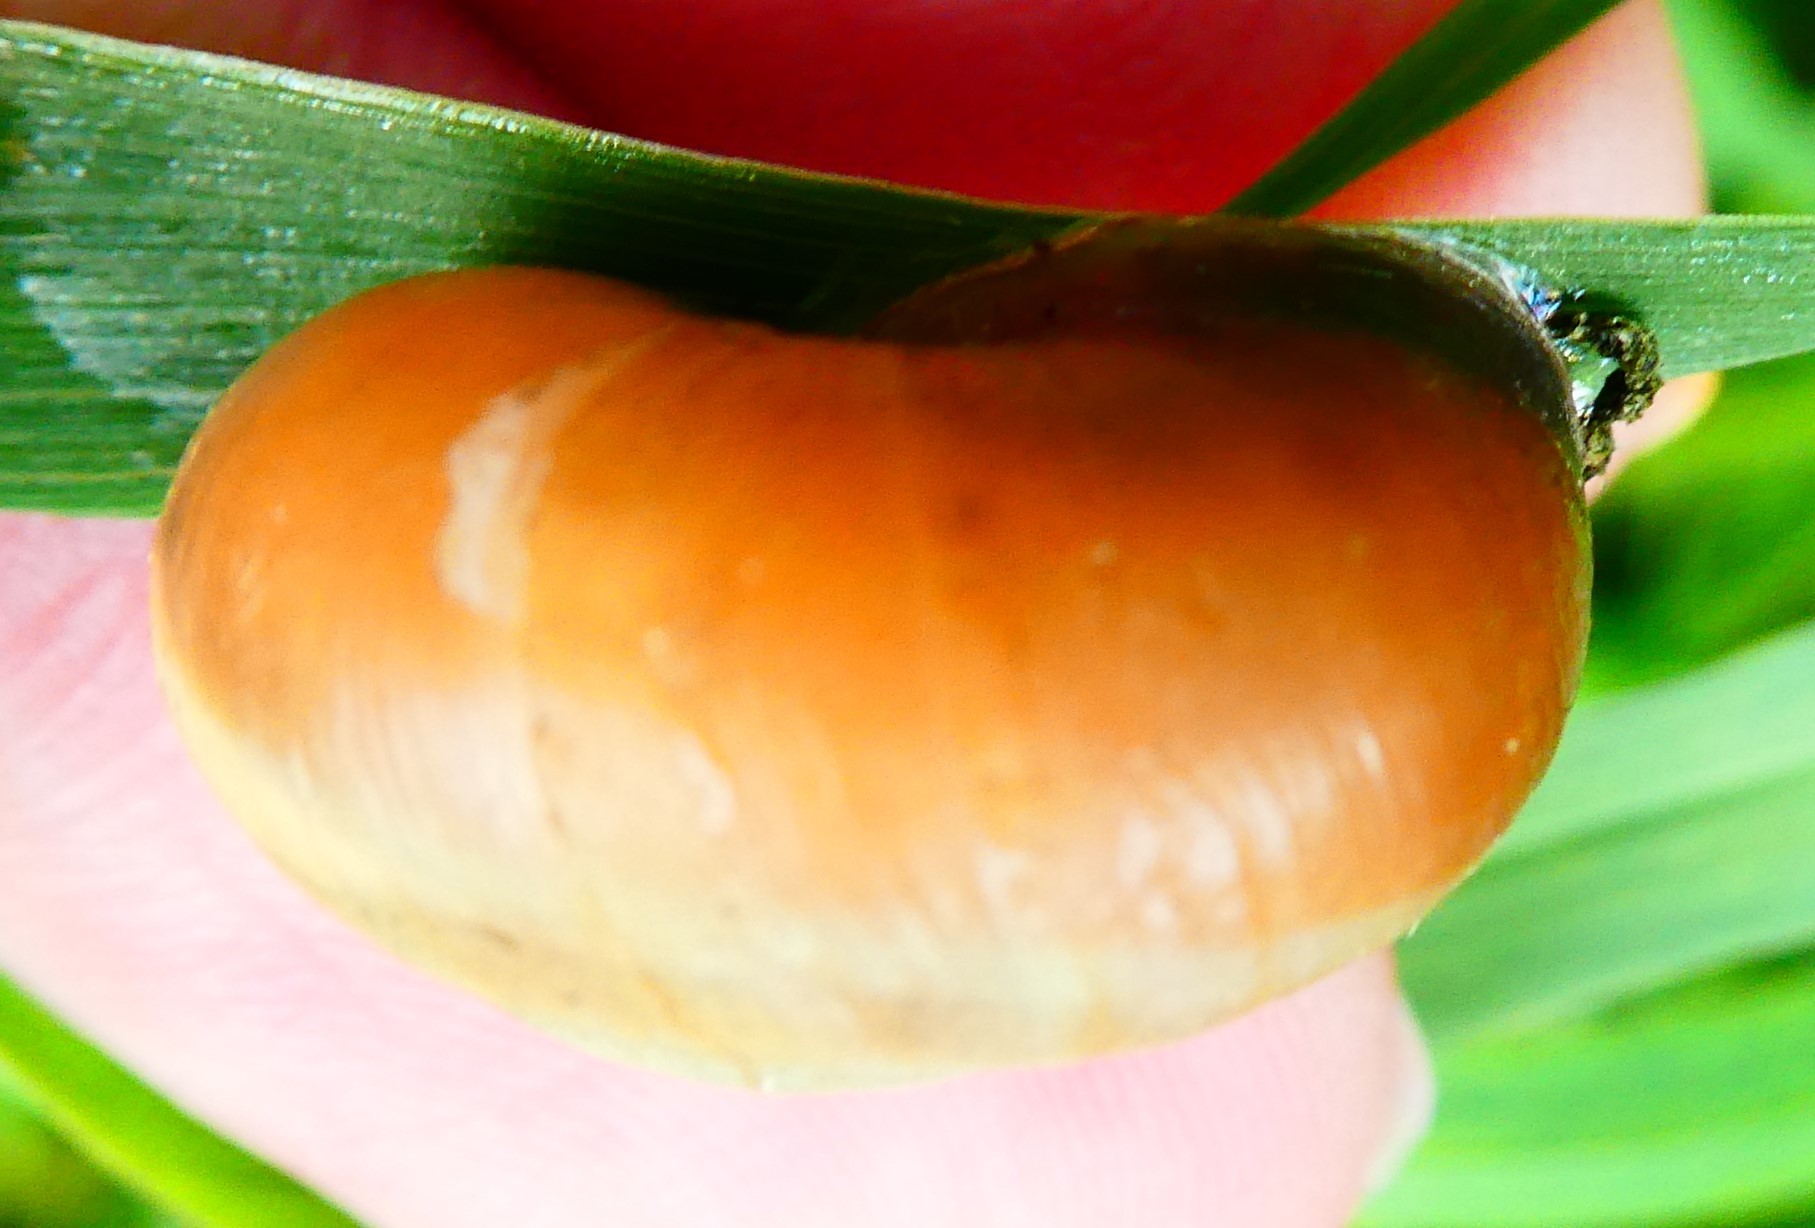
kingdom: Animalia
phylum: Mollusca
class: Gastropoda
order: Stylommatophora
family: Hygromiidae
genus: Monacha
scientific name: Monacha cantiana
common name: Kentish snail
